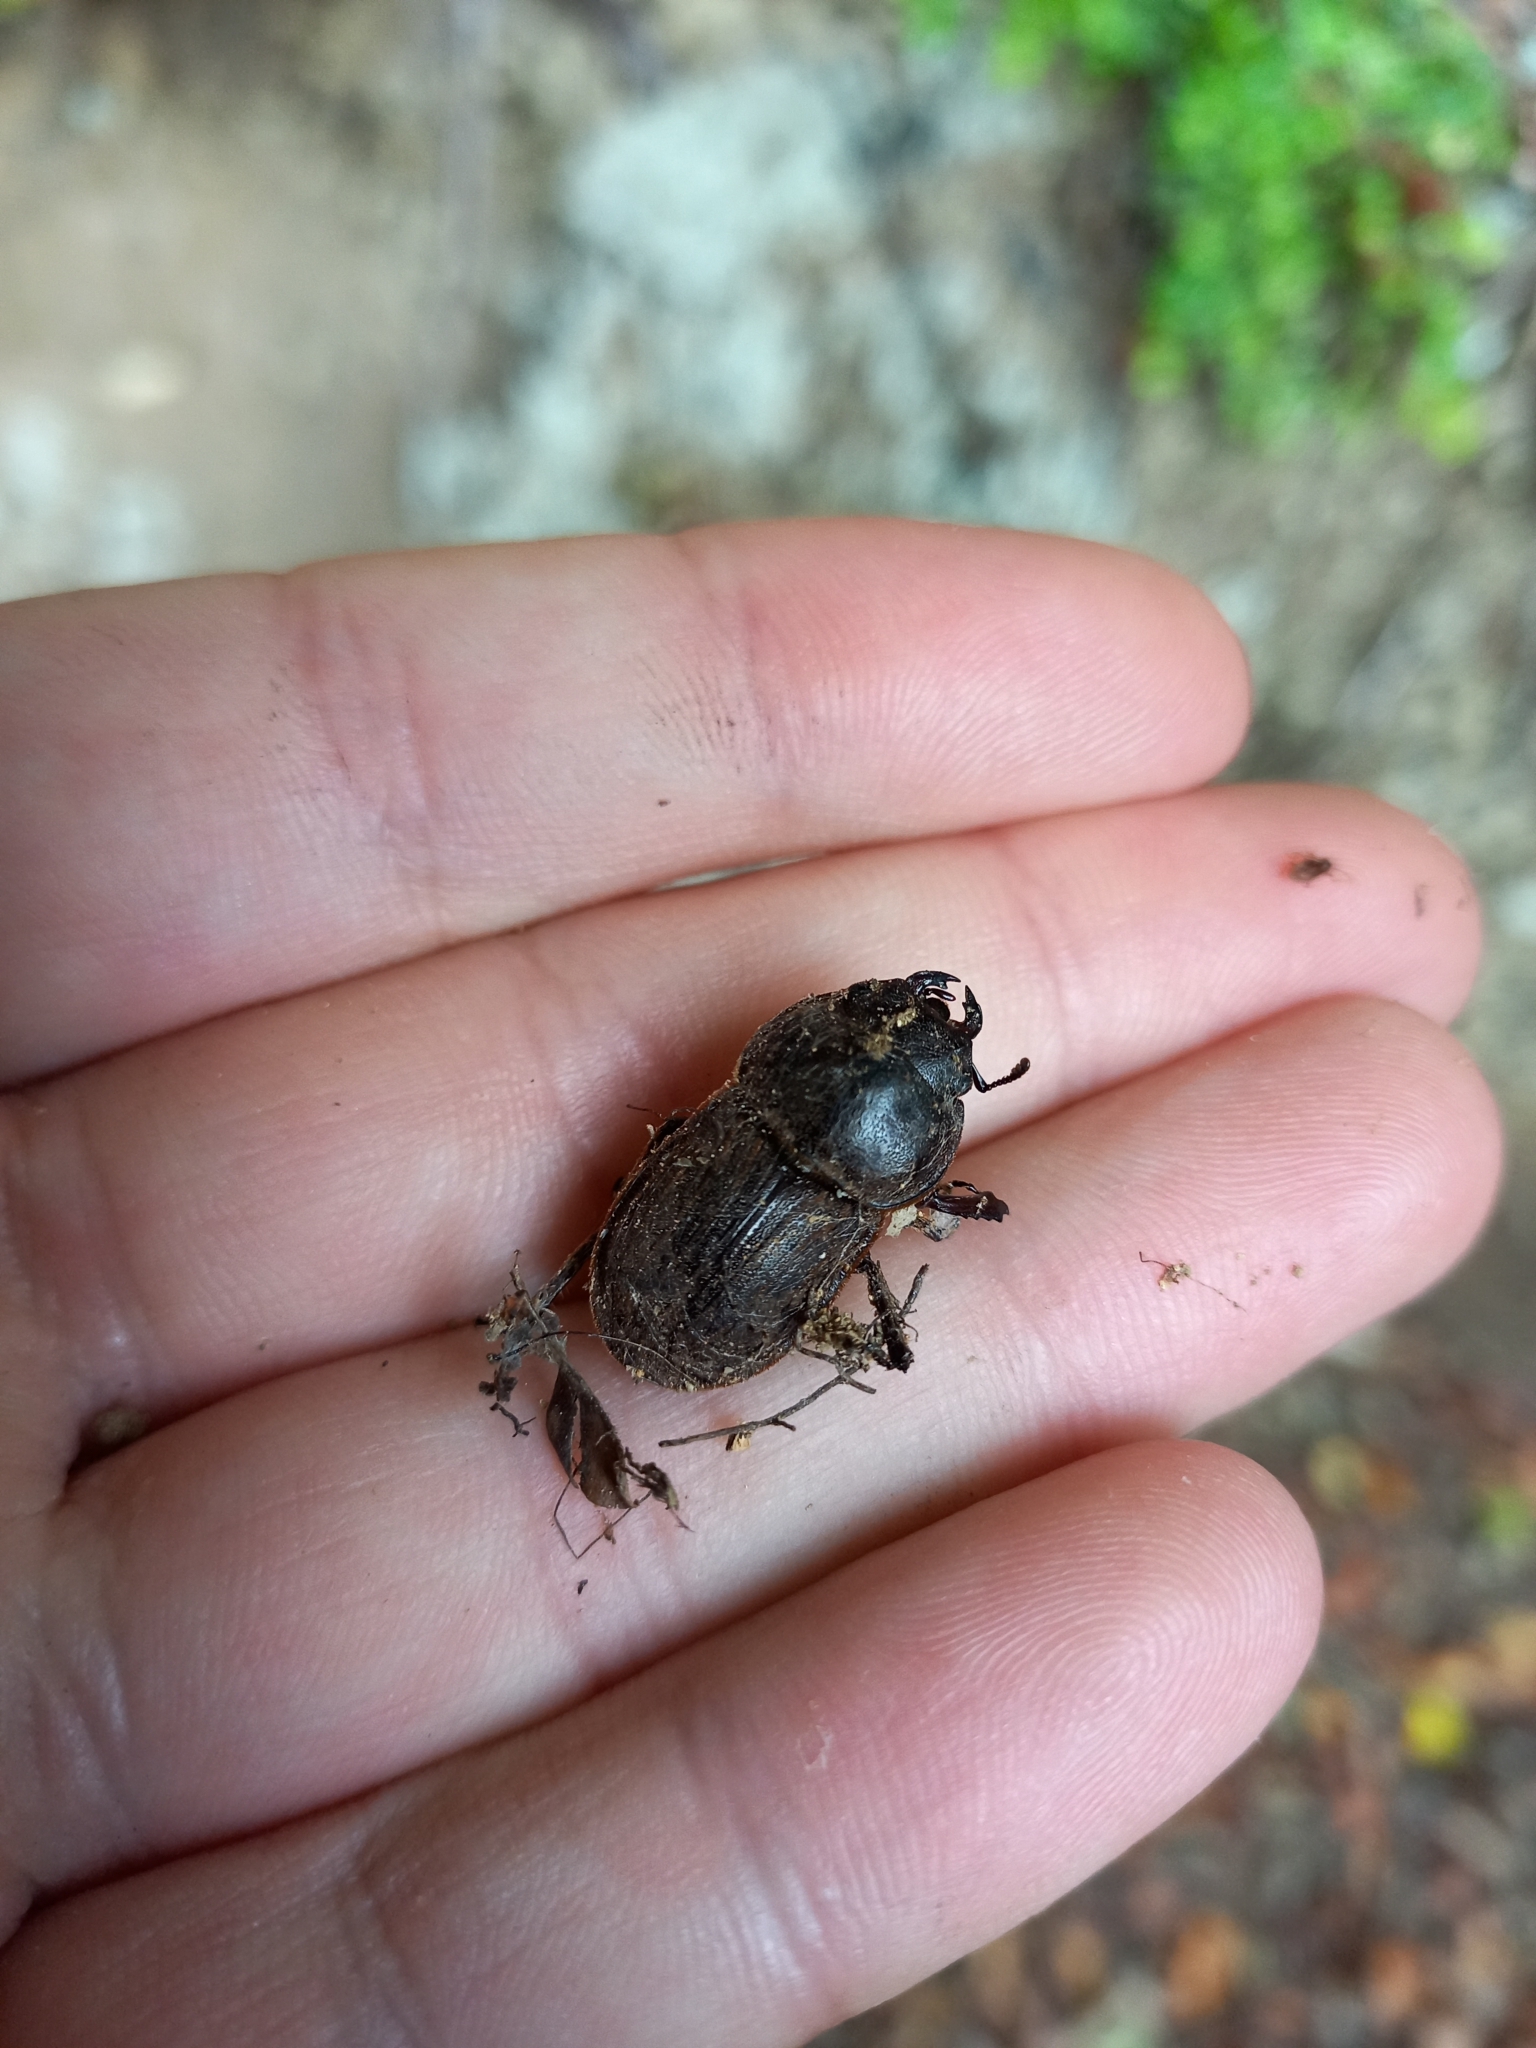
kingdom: Animalia
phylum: Arthropoda
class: Insecta
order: Coleoptera
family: Lucanidae
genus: Geodorcus
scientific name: Geodorcus helmsi
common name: Helm's stag beetle
